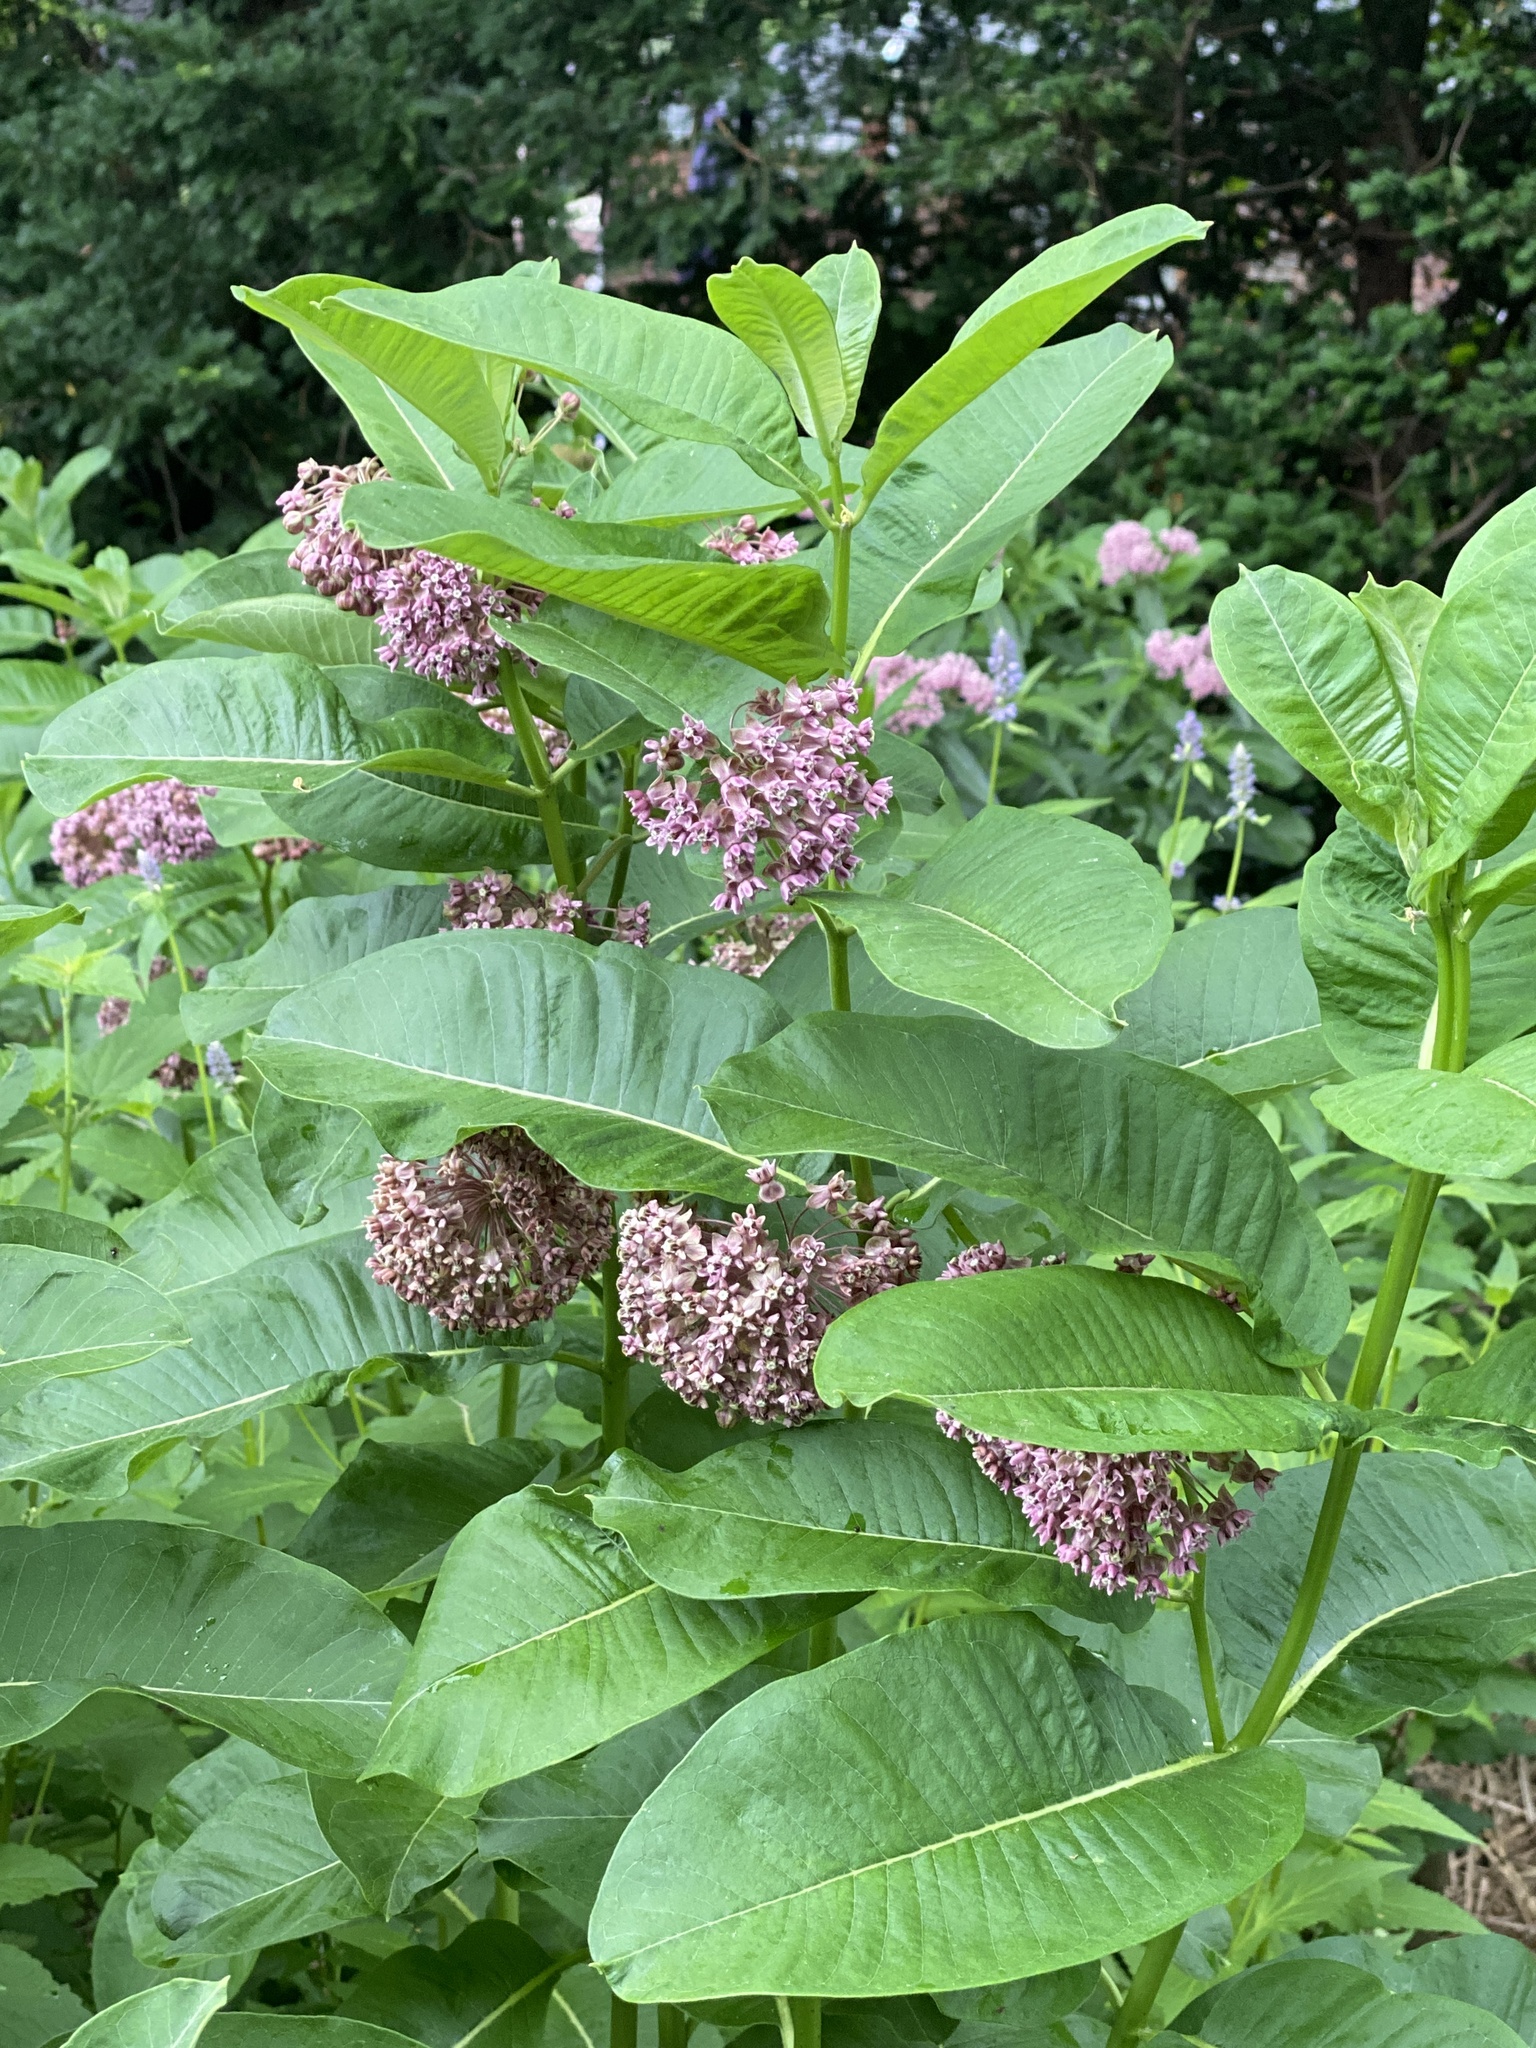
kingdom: Plantae
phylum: Tracheophyta
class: Magnoliopsida
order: Gentianales
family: Apocynaceae
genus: Asclepias
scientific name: Asclepias syriaca
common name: Common milkweed
